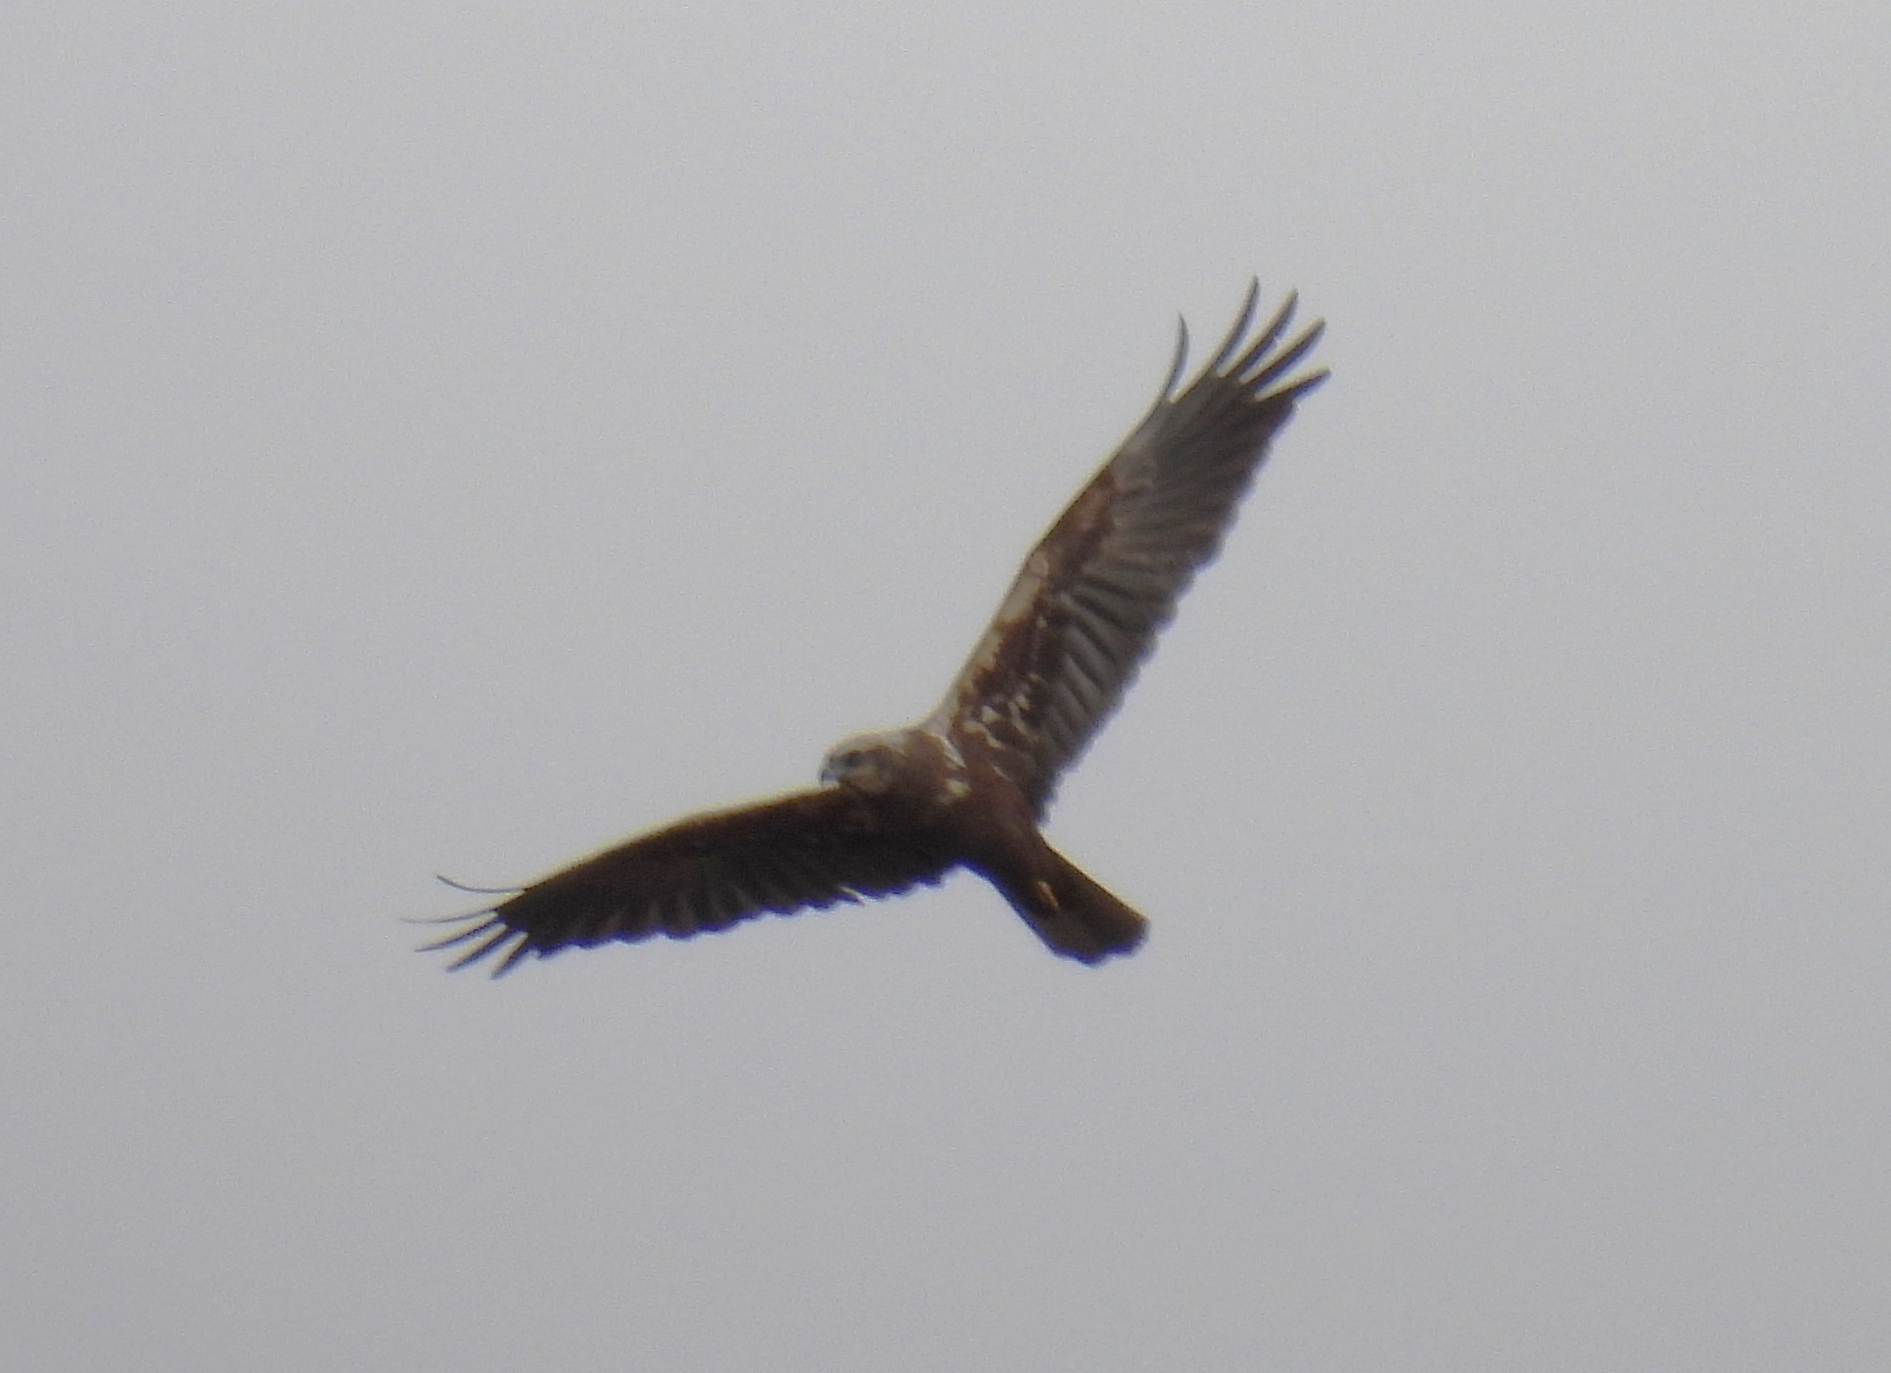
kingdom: Animalia
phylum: Chordata
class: Aves
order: Accipitriformes
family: Accipitridae
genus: Circus
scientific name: Circus aeruginosus
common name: Western marsh harrier
